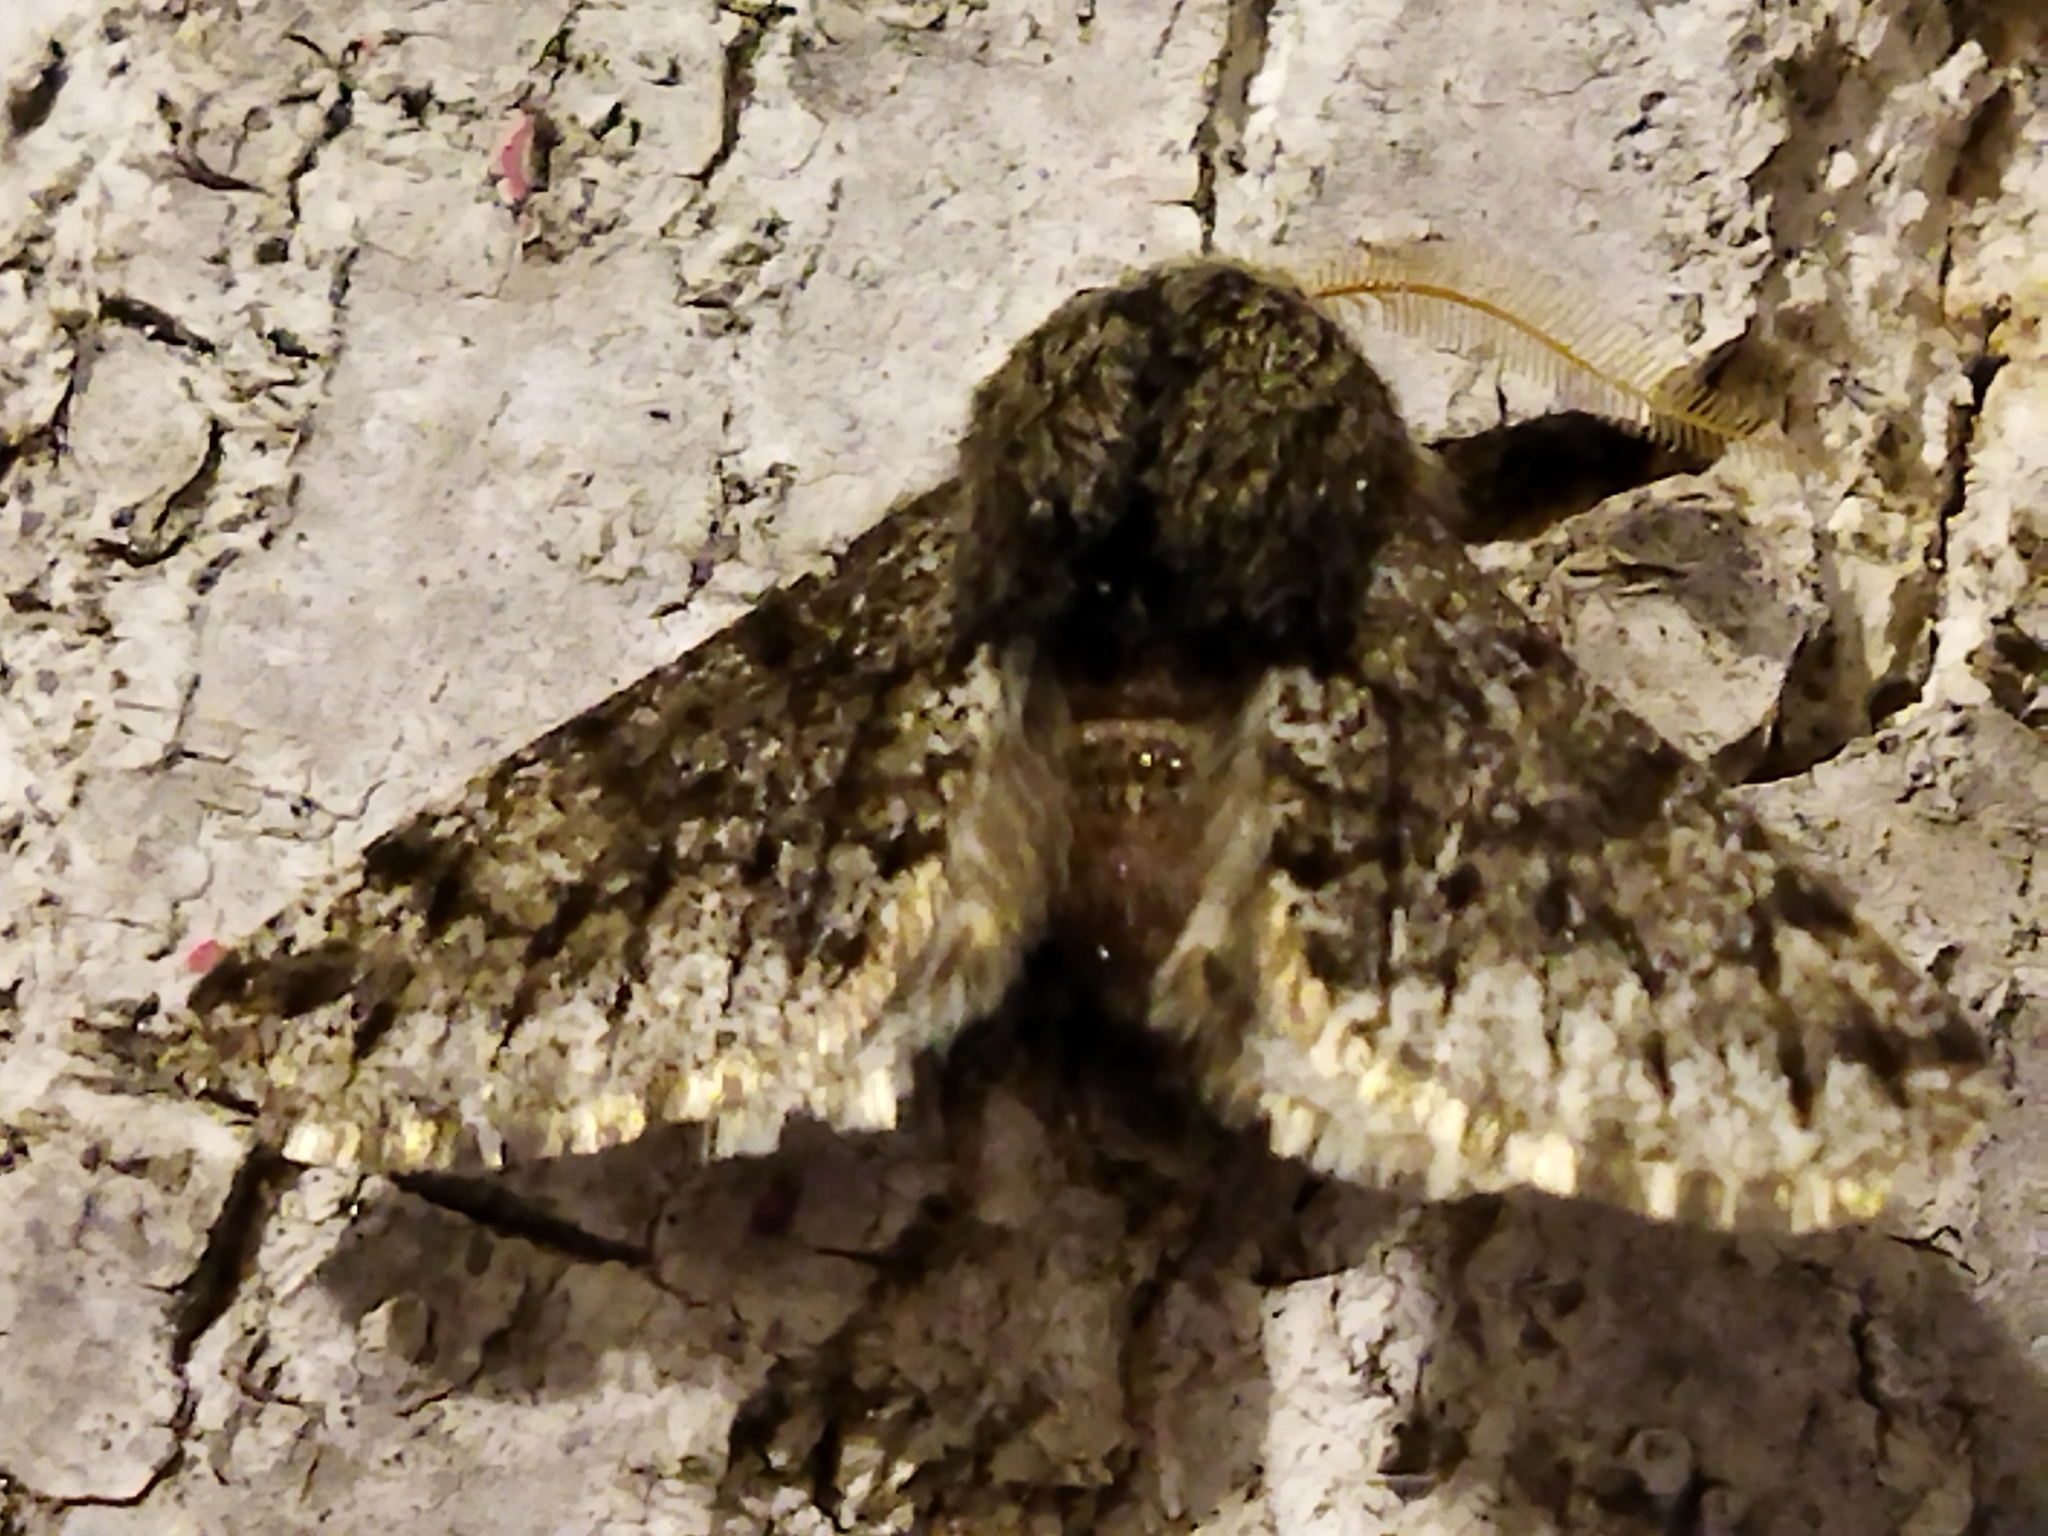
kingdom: Animalia
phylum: Arthropoda
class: Insecta
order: Lepidoptera
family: Geometridae
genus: Apocheima
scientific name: Apocheima hispidaria
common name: Small brindled beauty
